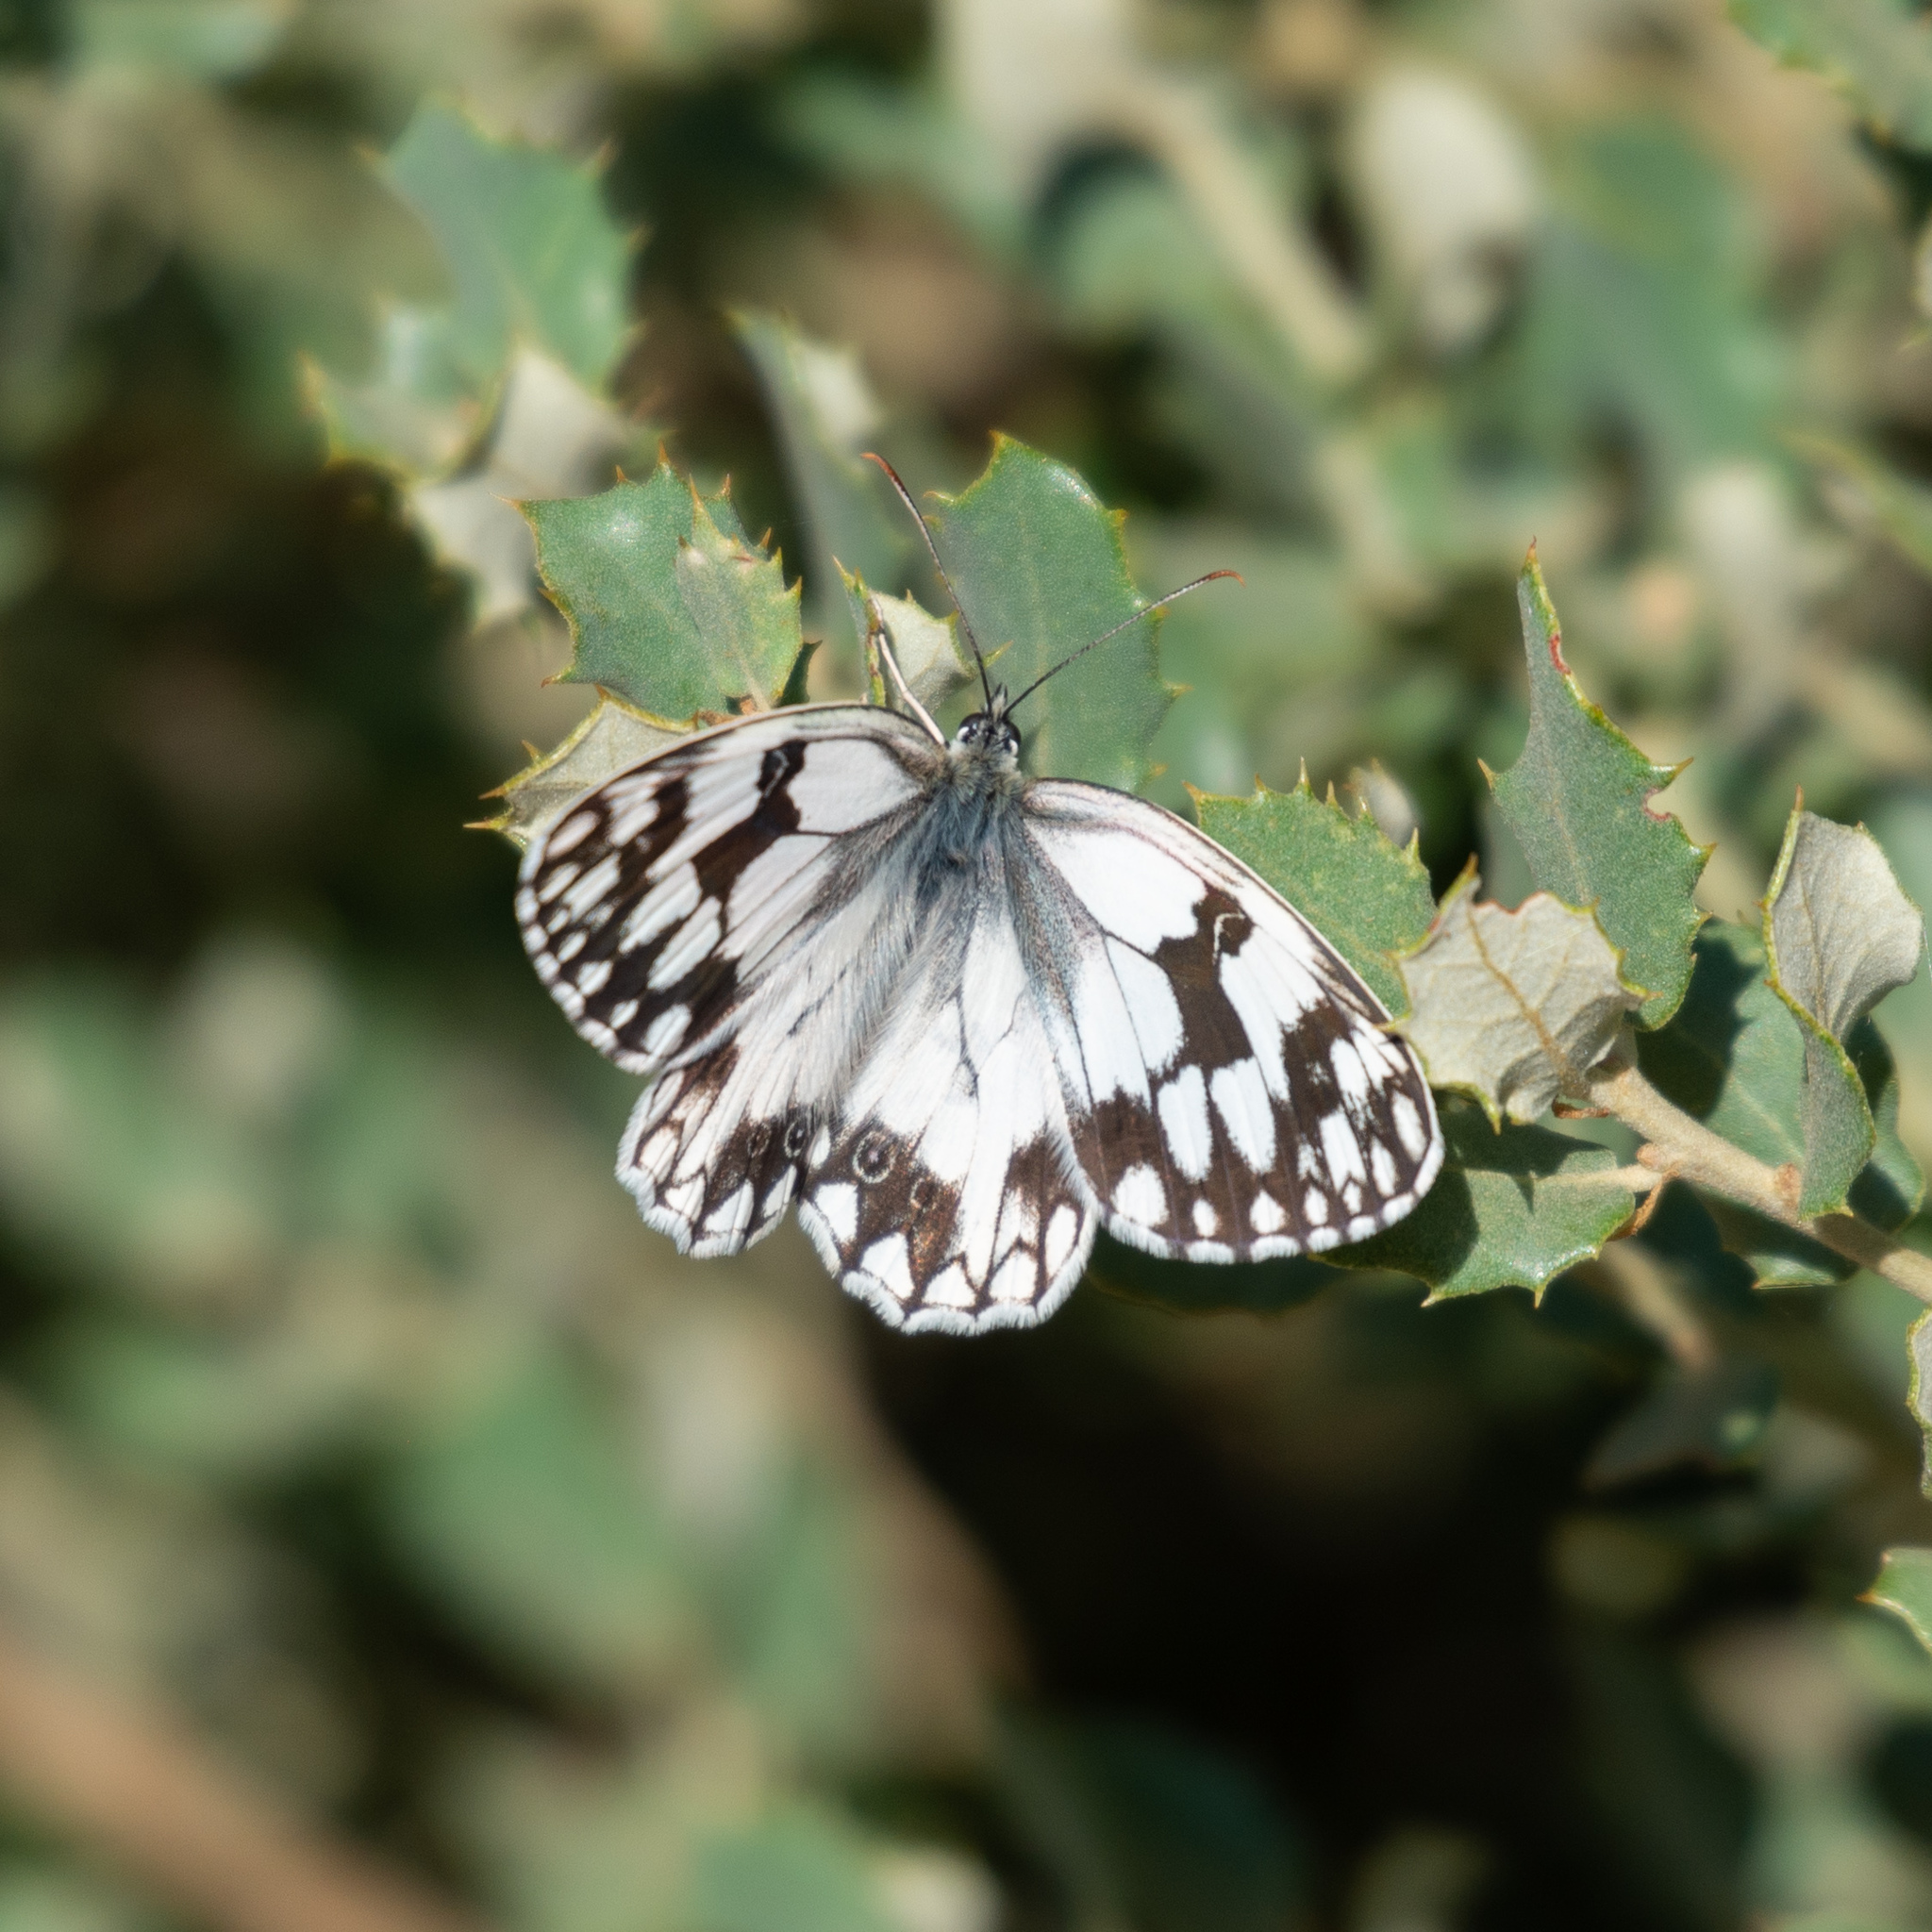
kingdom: Animalia
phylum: Arthropoda
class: Insecta
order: Lepidoptera
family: Nymphalidae
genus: Melanargia
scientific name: Melanargia lachesis
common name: Iberian marbled white
